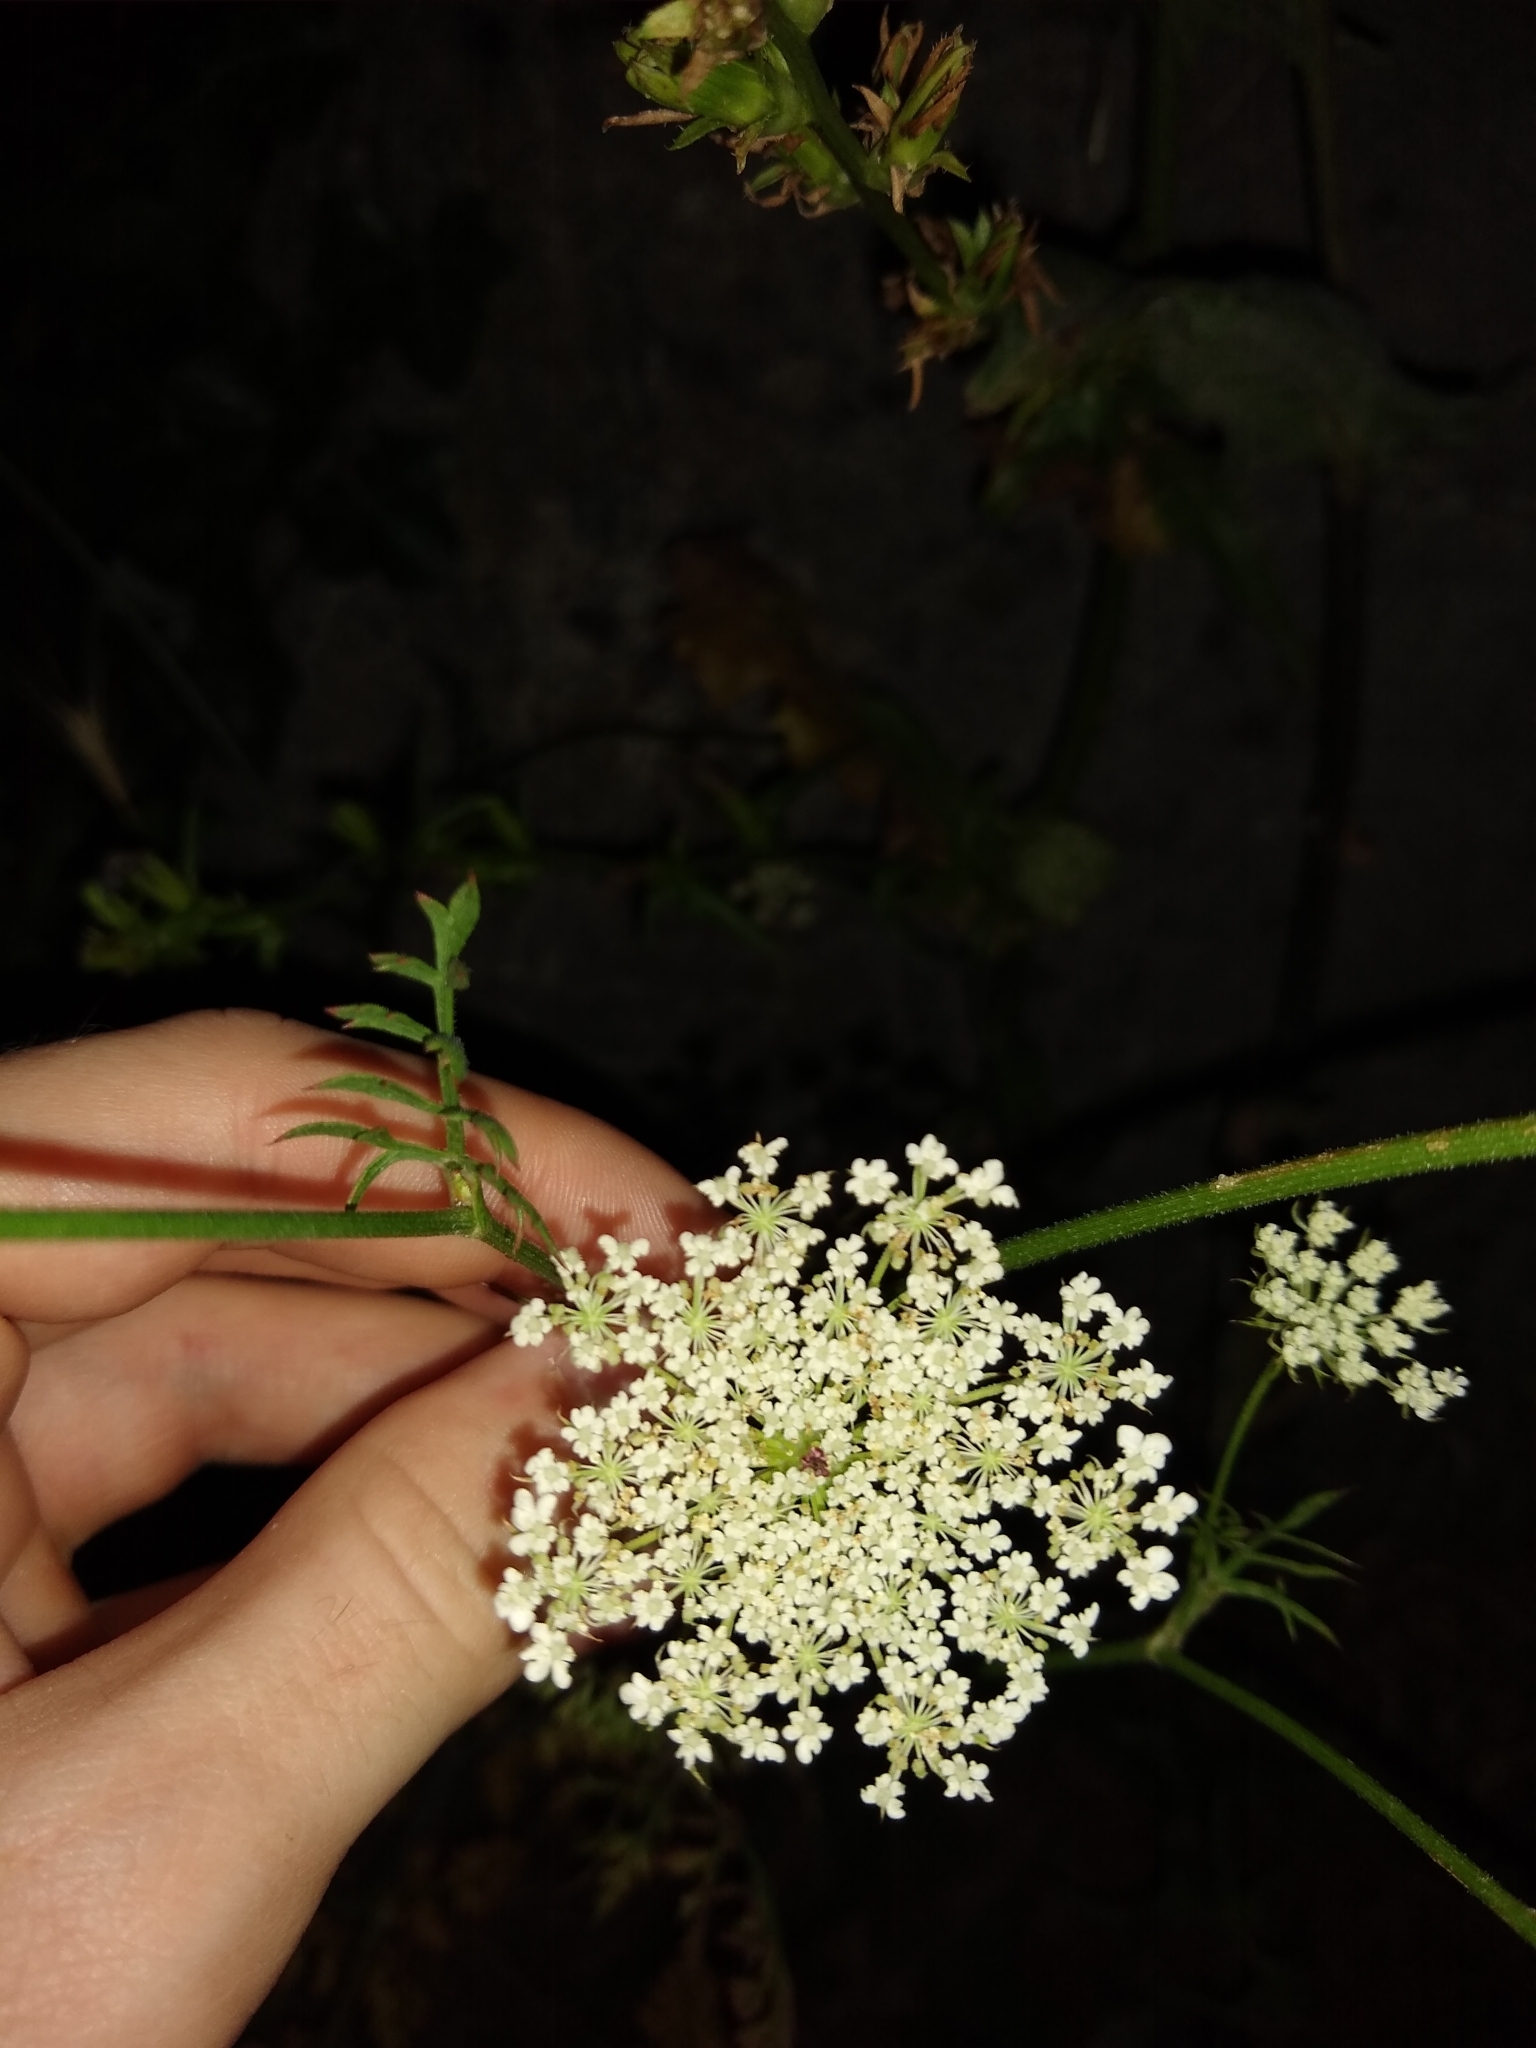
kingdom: Plantae
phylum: Tracheophyta
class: Magnoliopsida
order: Apiales
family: Apiaceae
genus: Daucus
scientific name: Daucus carota
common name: Wild carrot
